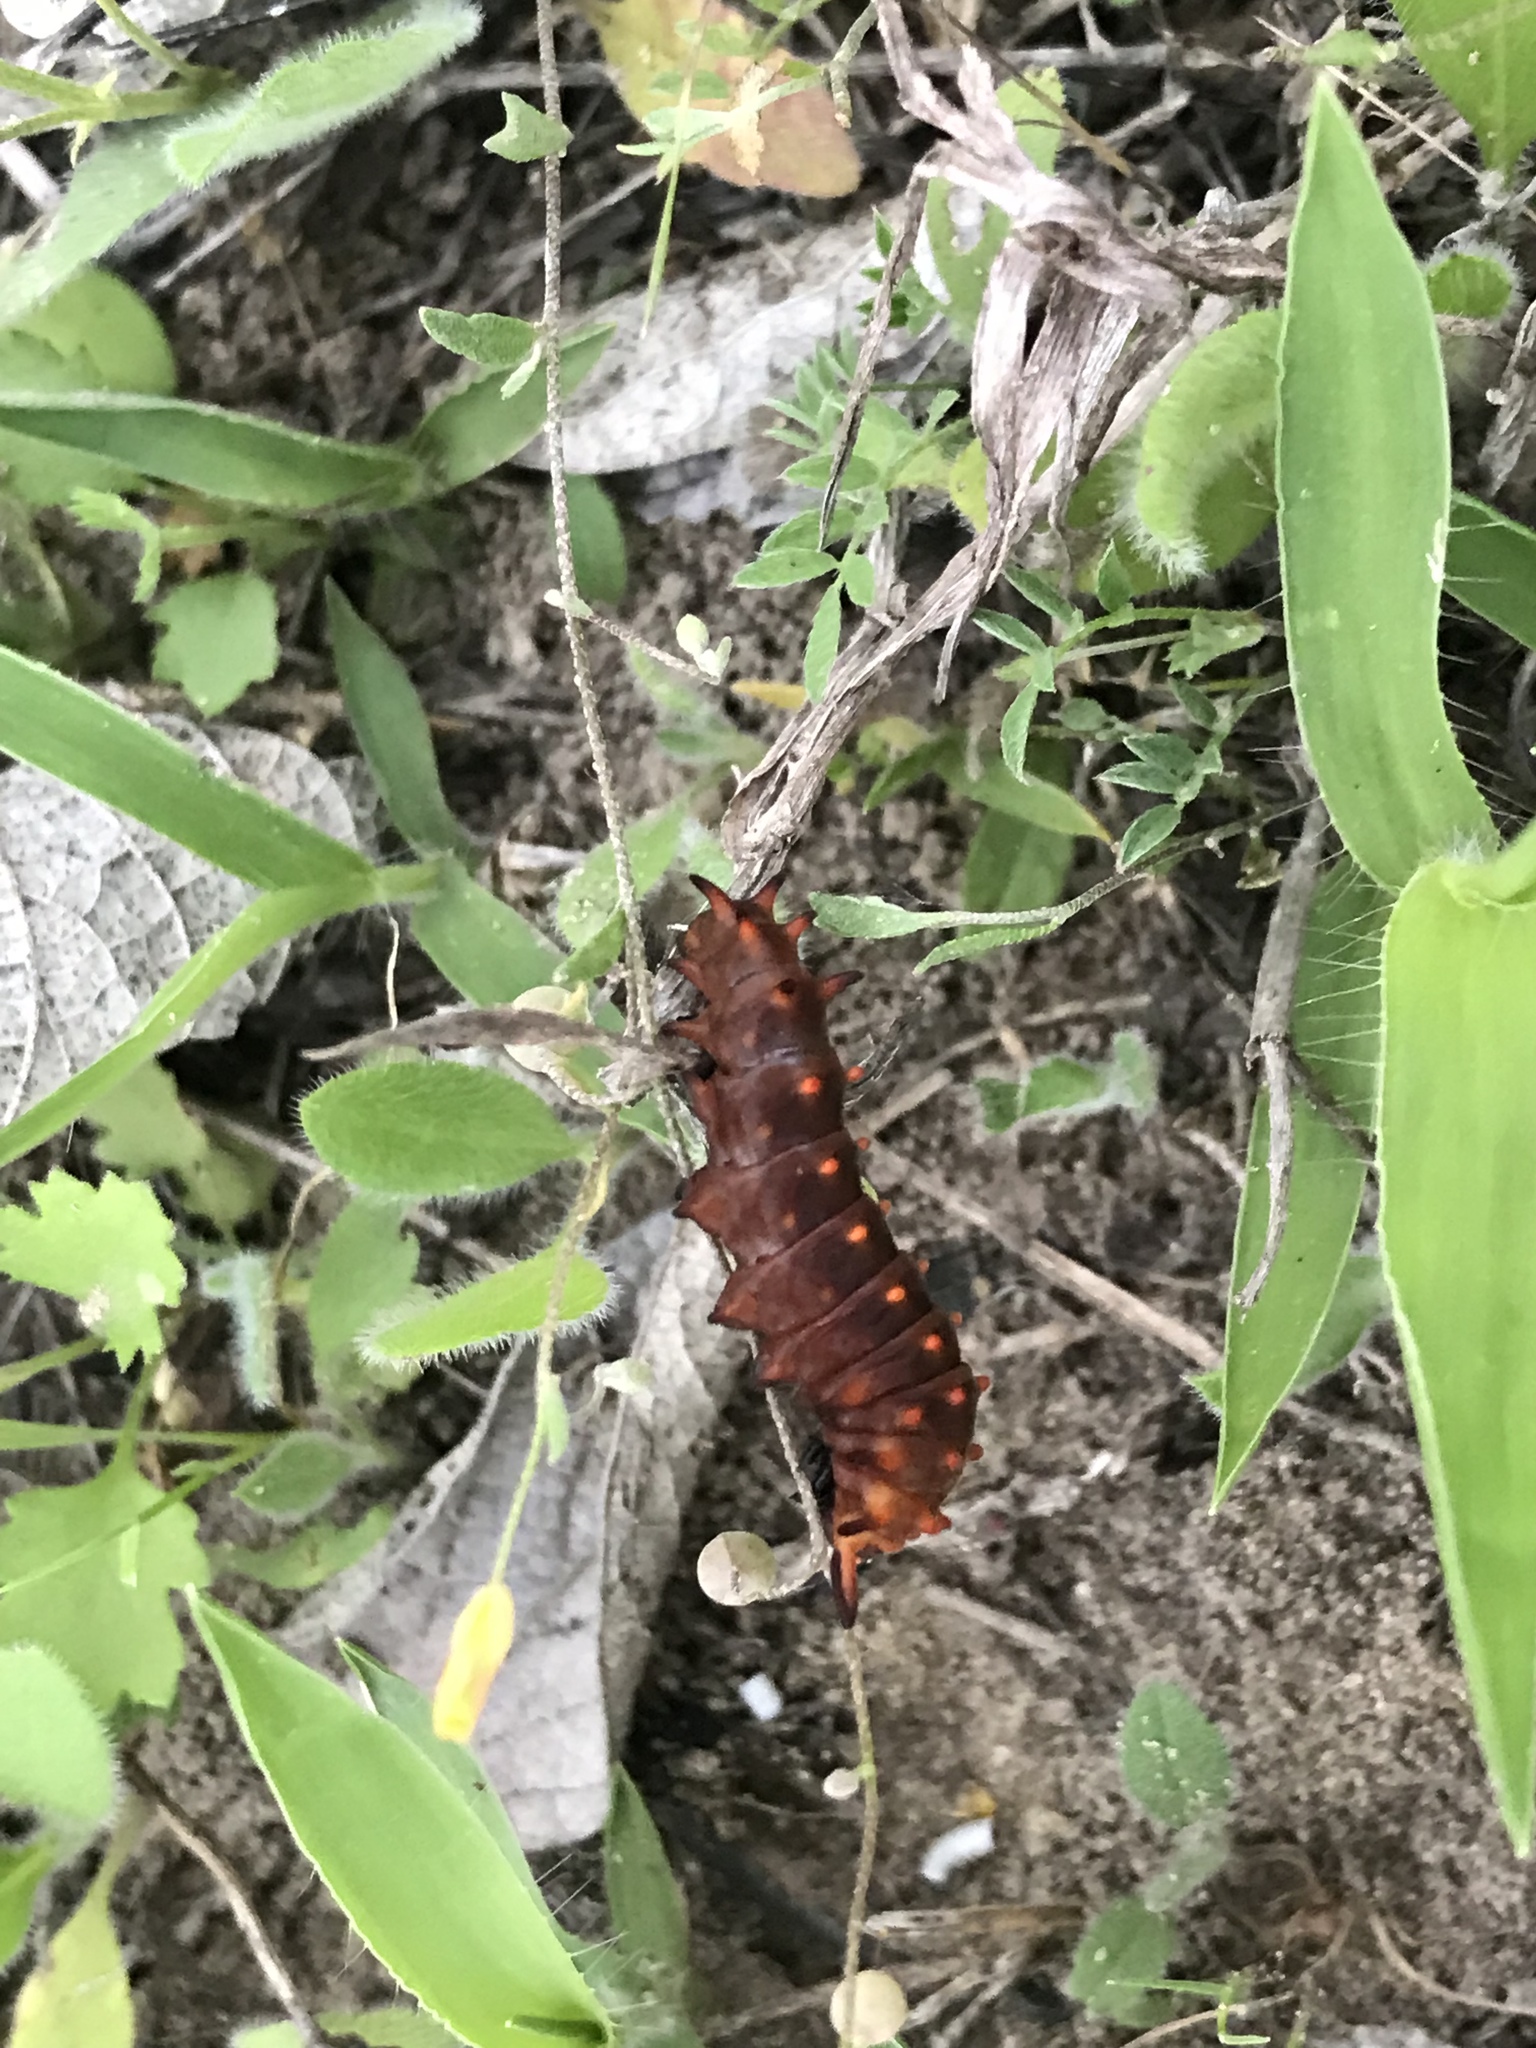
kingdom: Animalia
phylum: Arthropoda
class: Insecta
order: Lepidoptera
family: Papilionidae
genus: Battus
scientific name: Battus philenor
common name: Pipevine swallowtail
